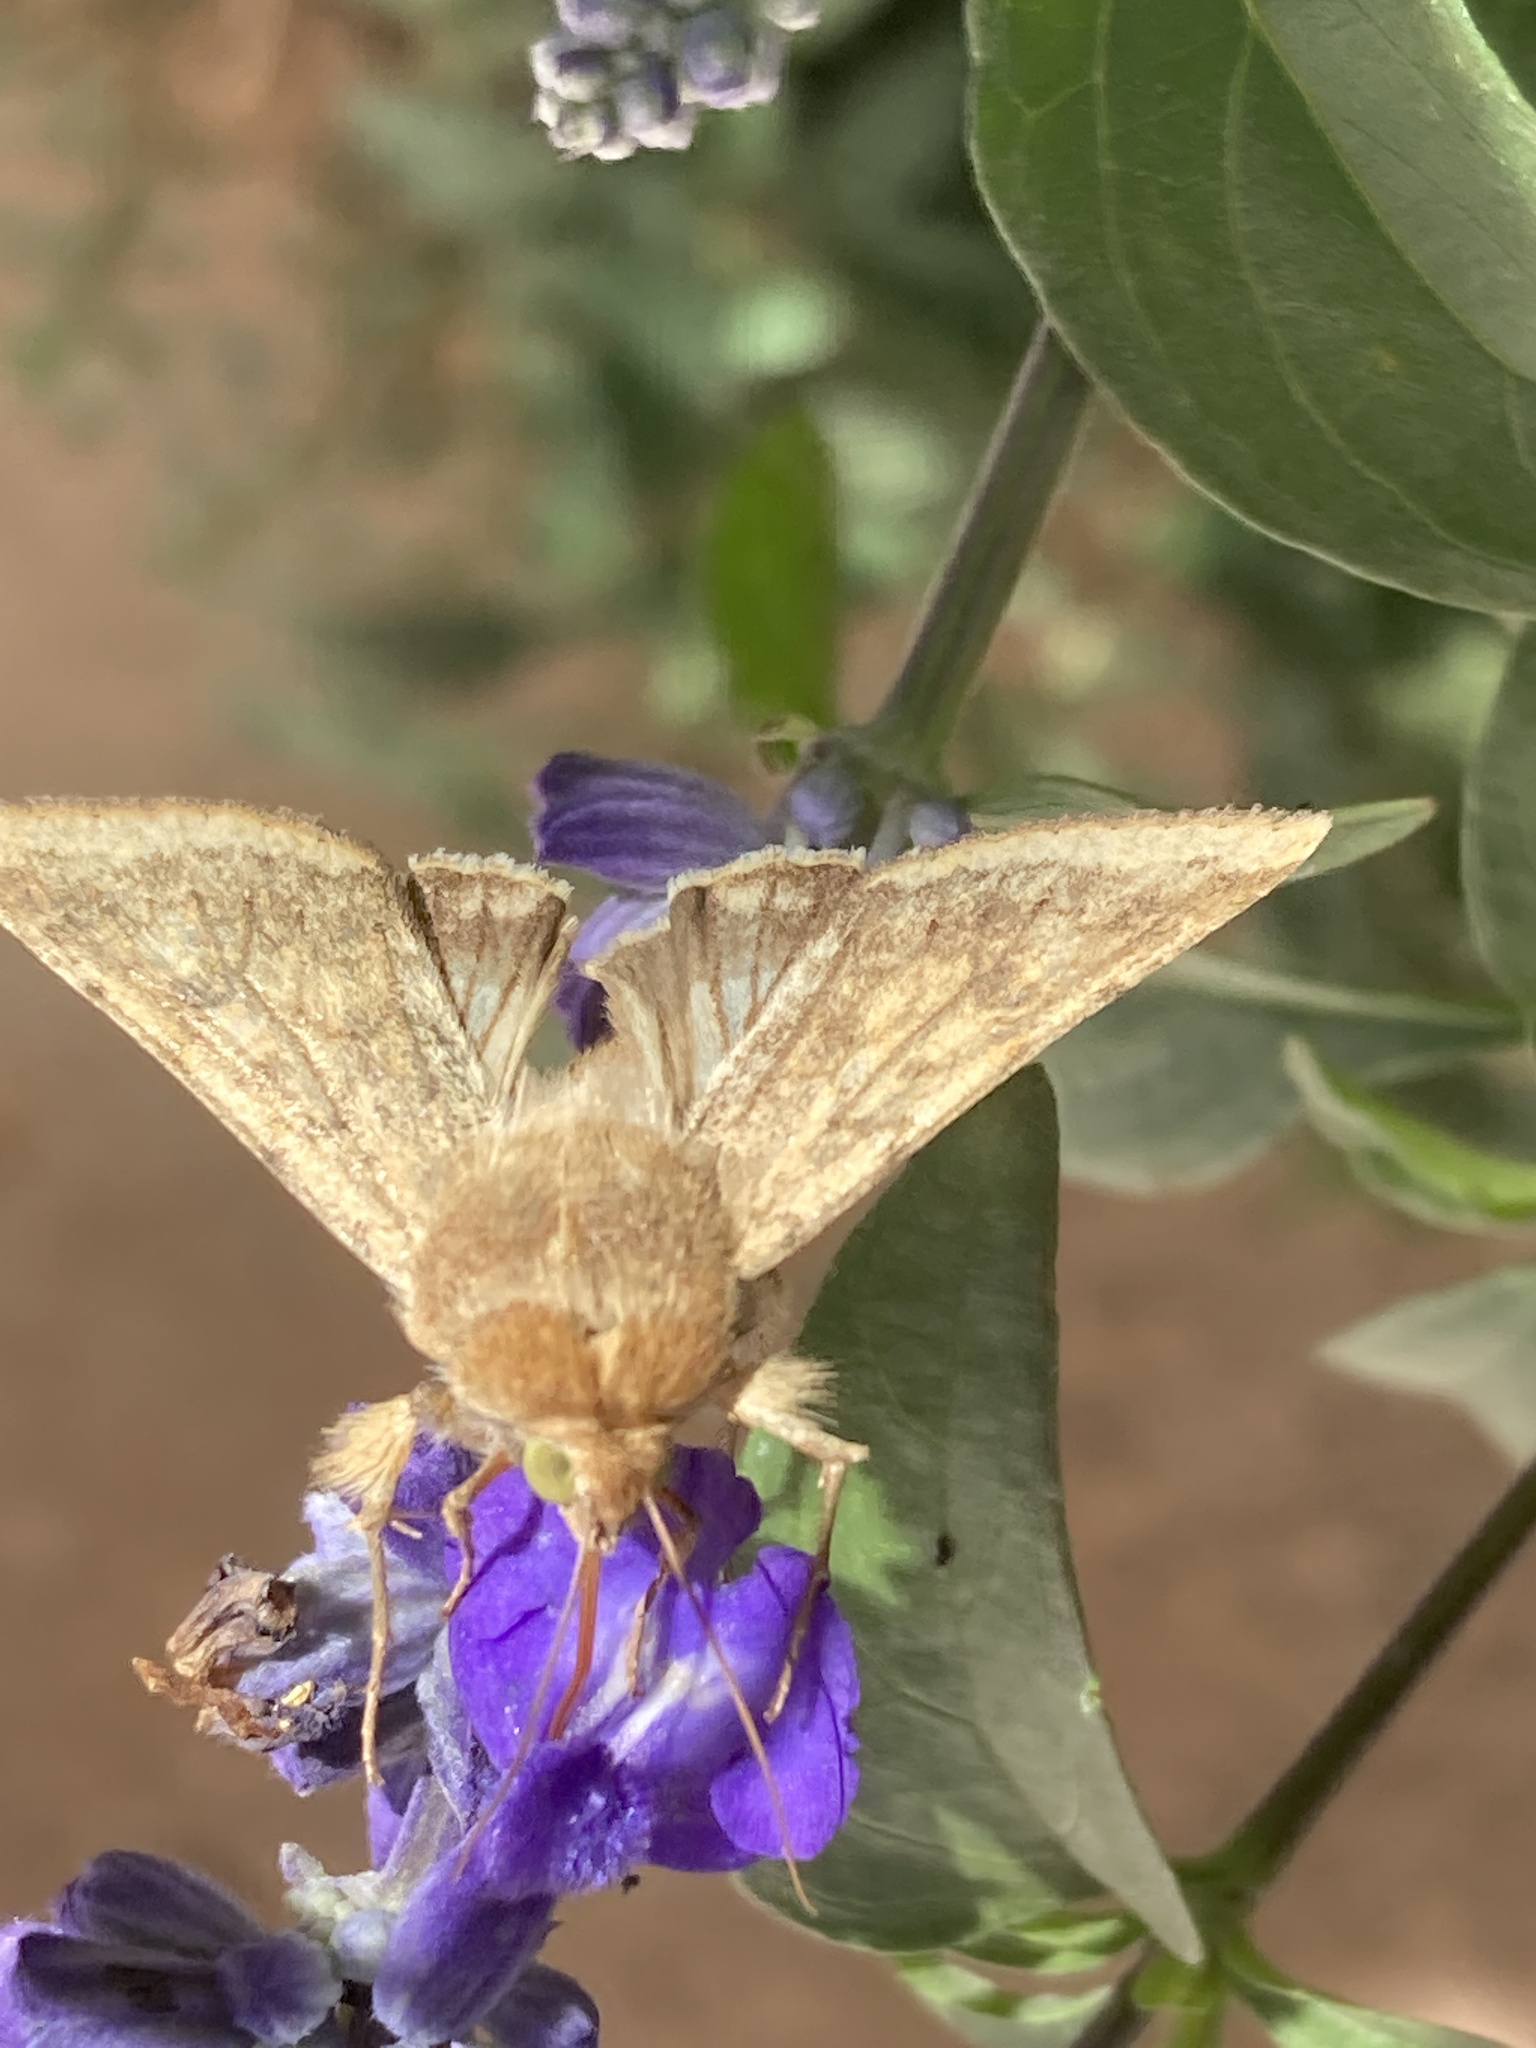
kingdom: Animalia
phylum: Arthropoda
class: Insecta
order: Lepidoptera
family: Noctuidae
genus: Helicoverpa
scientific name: Helicoverpa zea
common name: Bollworm
